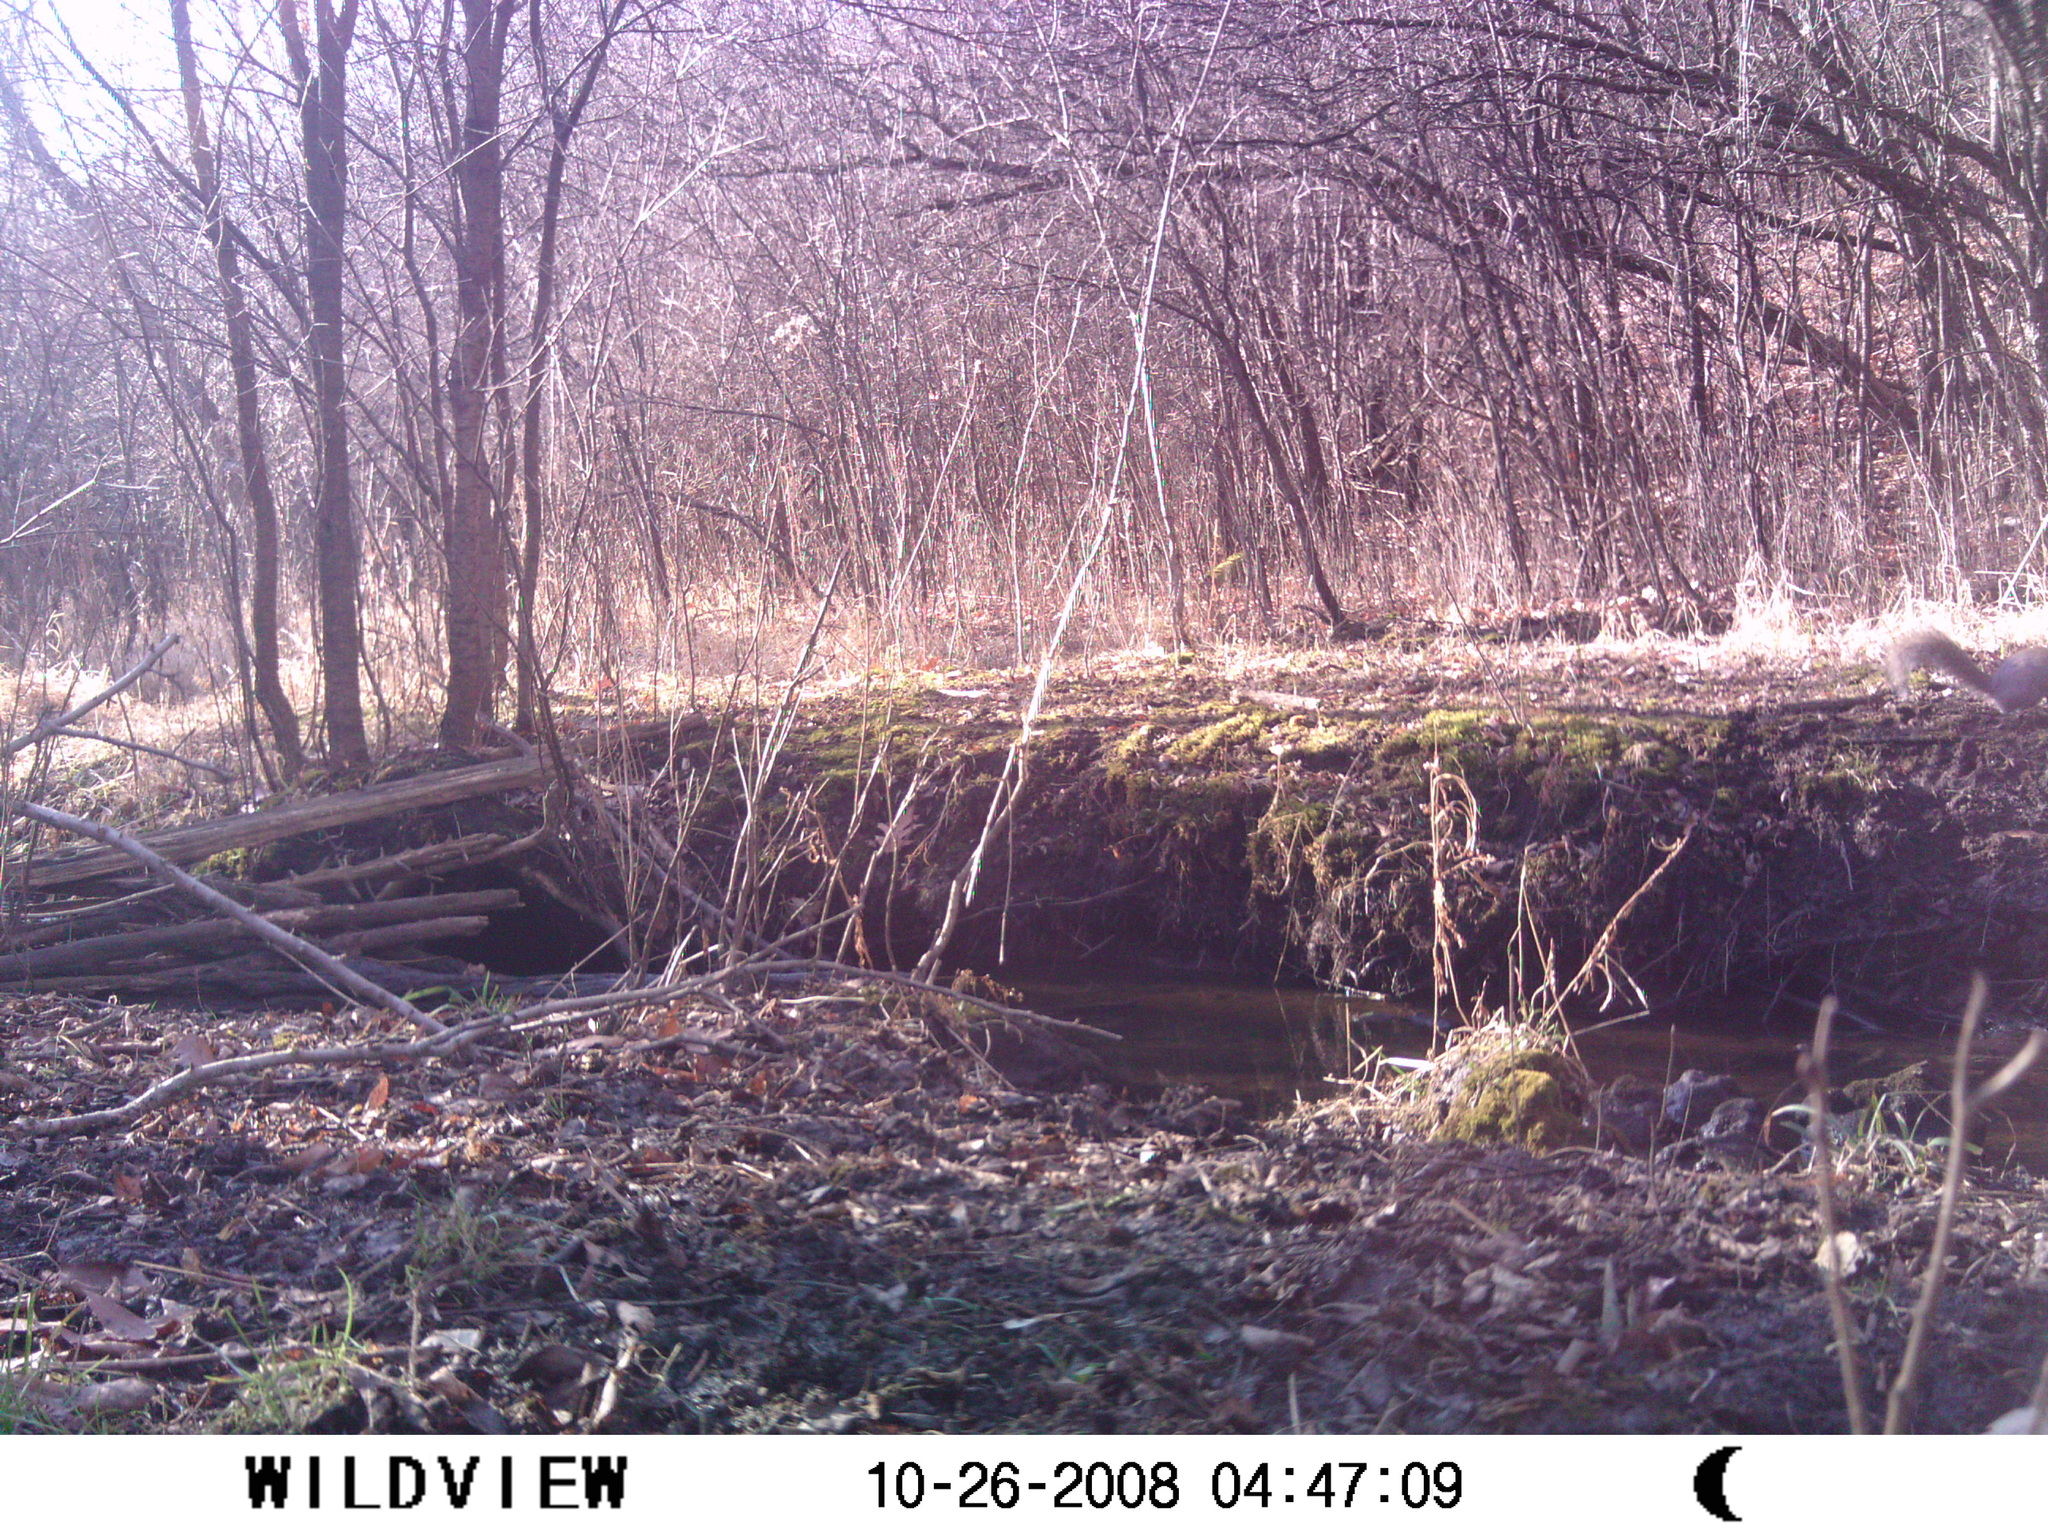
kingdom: Animalia
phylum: Chordata
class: Mammalia
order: Rodentia
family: Sciuridae
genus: Sciurus
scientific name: Sciurus carolinensis
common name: Eastern gray squirrel
